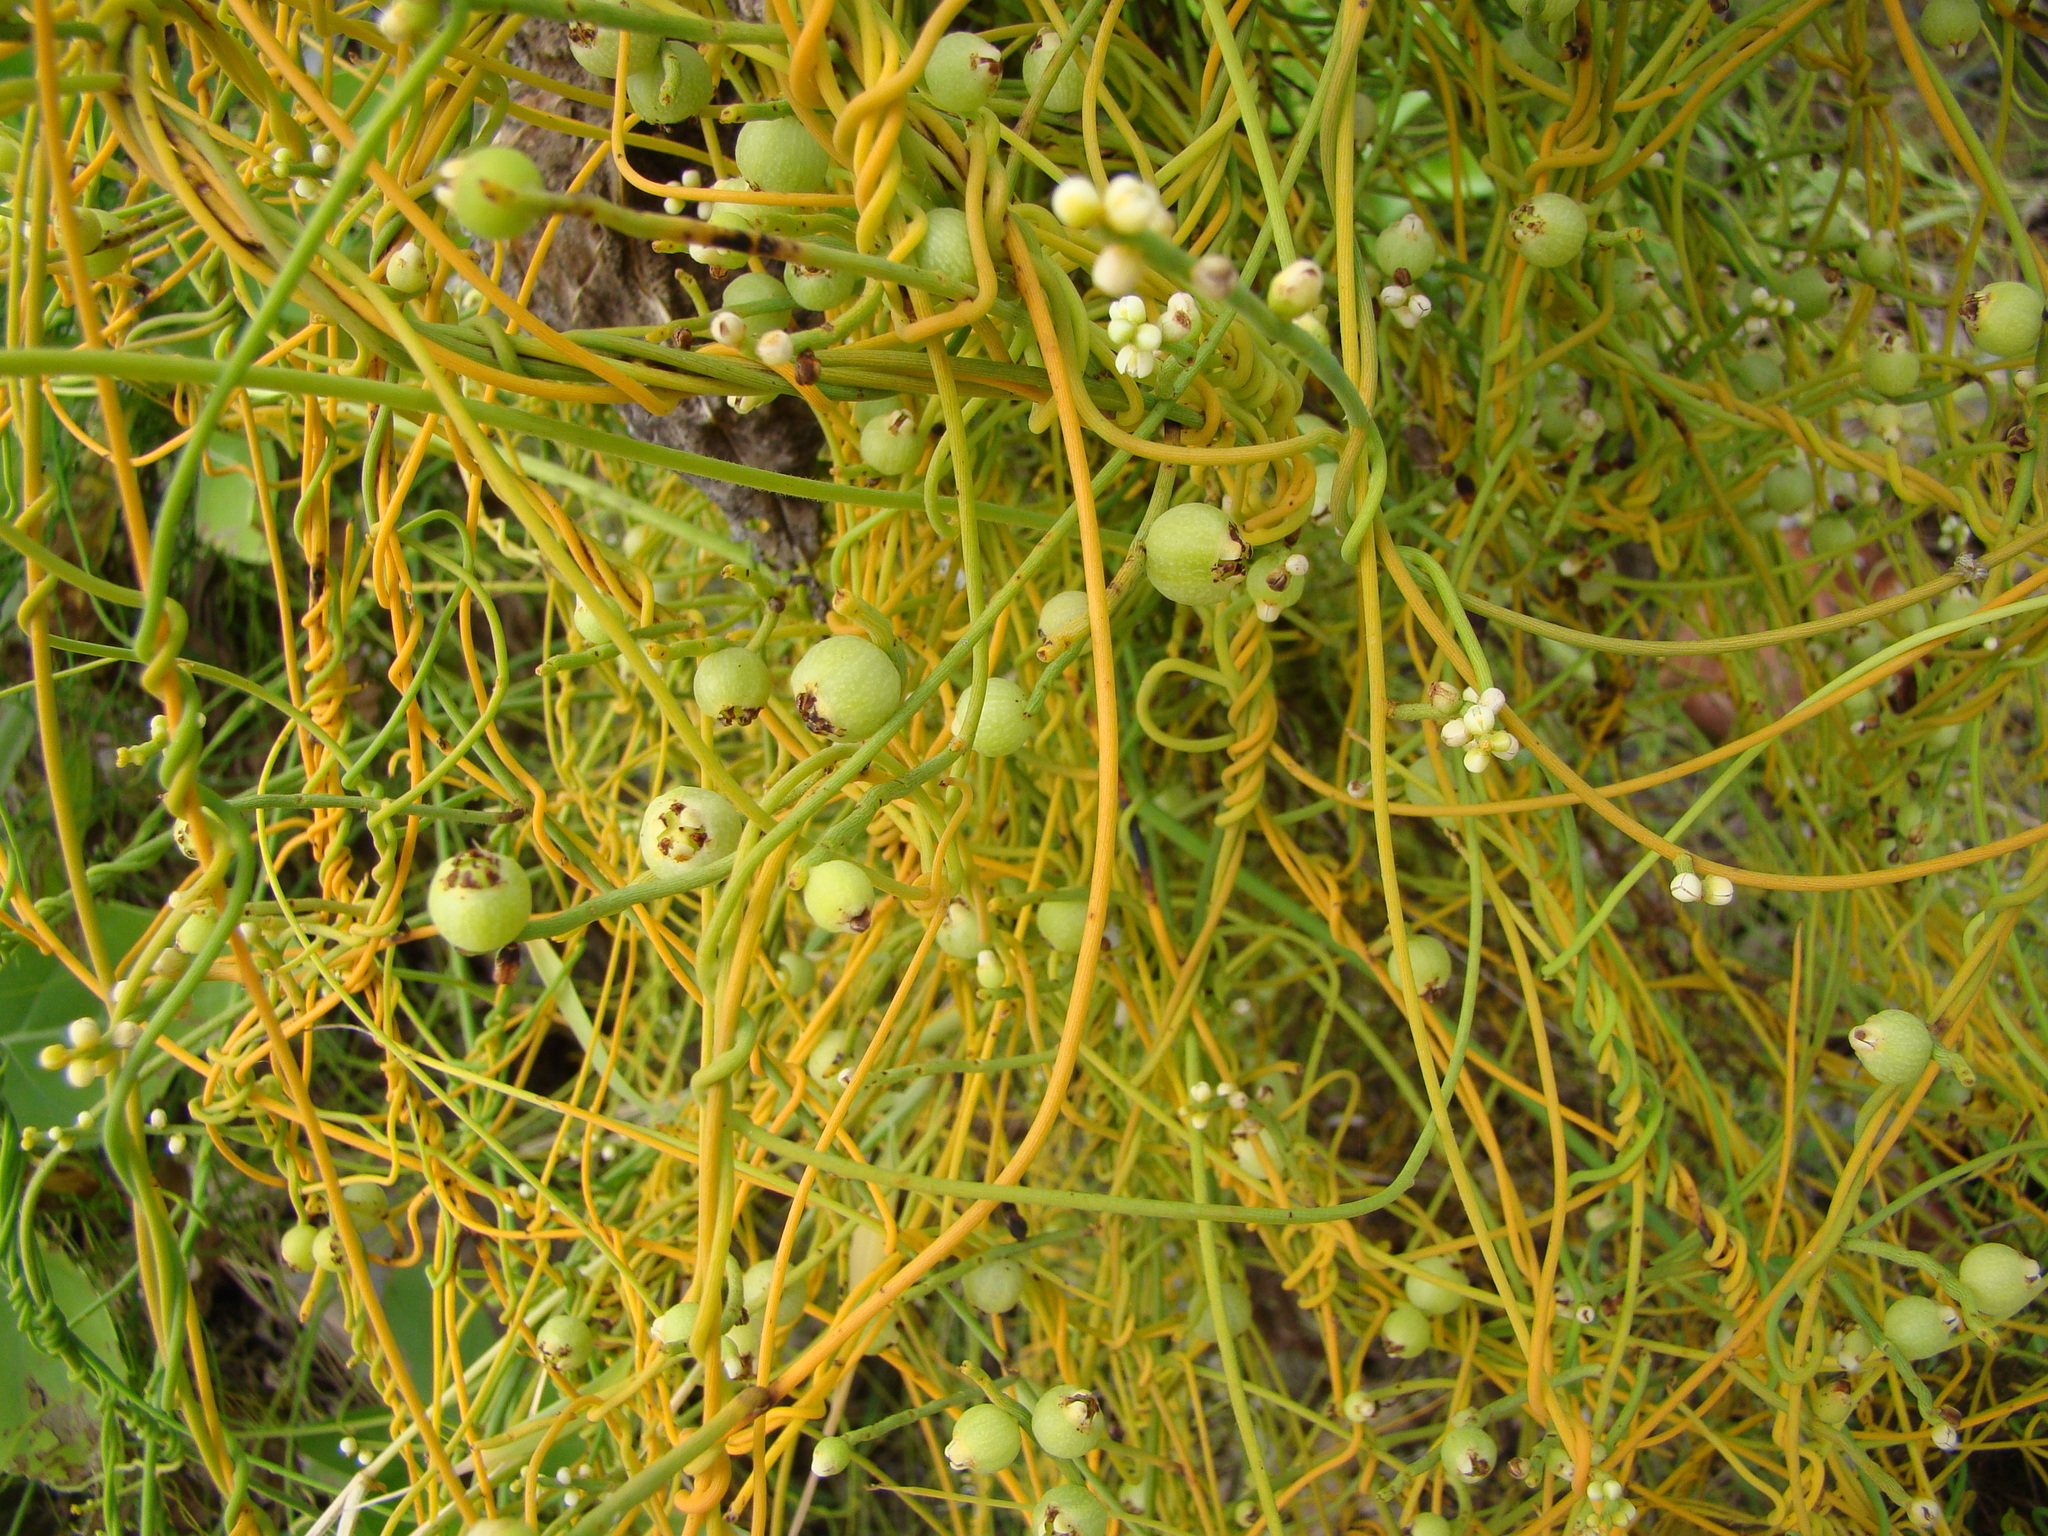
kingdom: Plantae
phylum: Tracheophyta
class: Magnoliopsida
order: Laurales
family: Lauraceae
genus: Cassytha
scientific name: Cassytha filiformis
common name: Dodder-laurel
